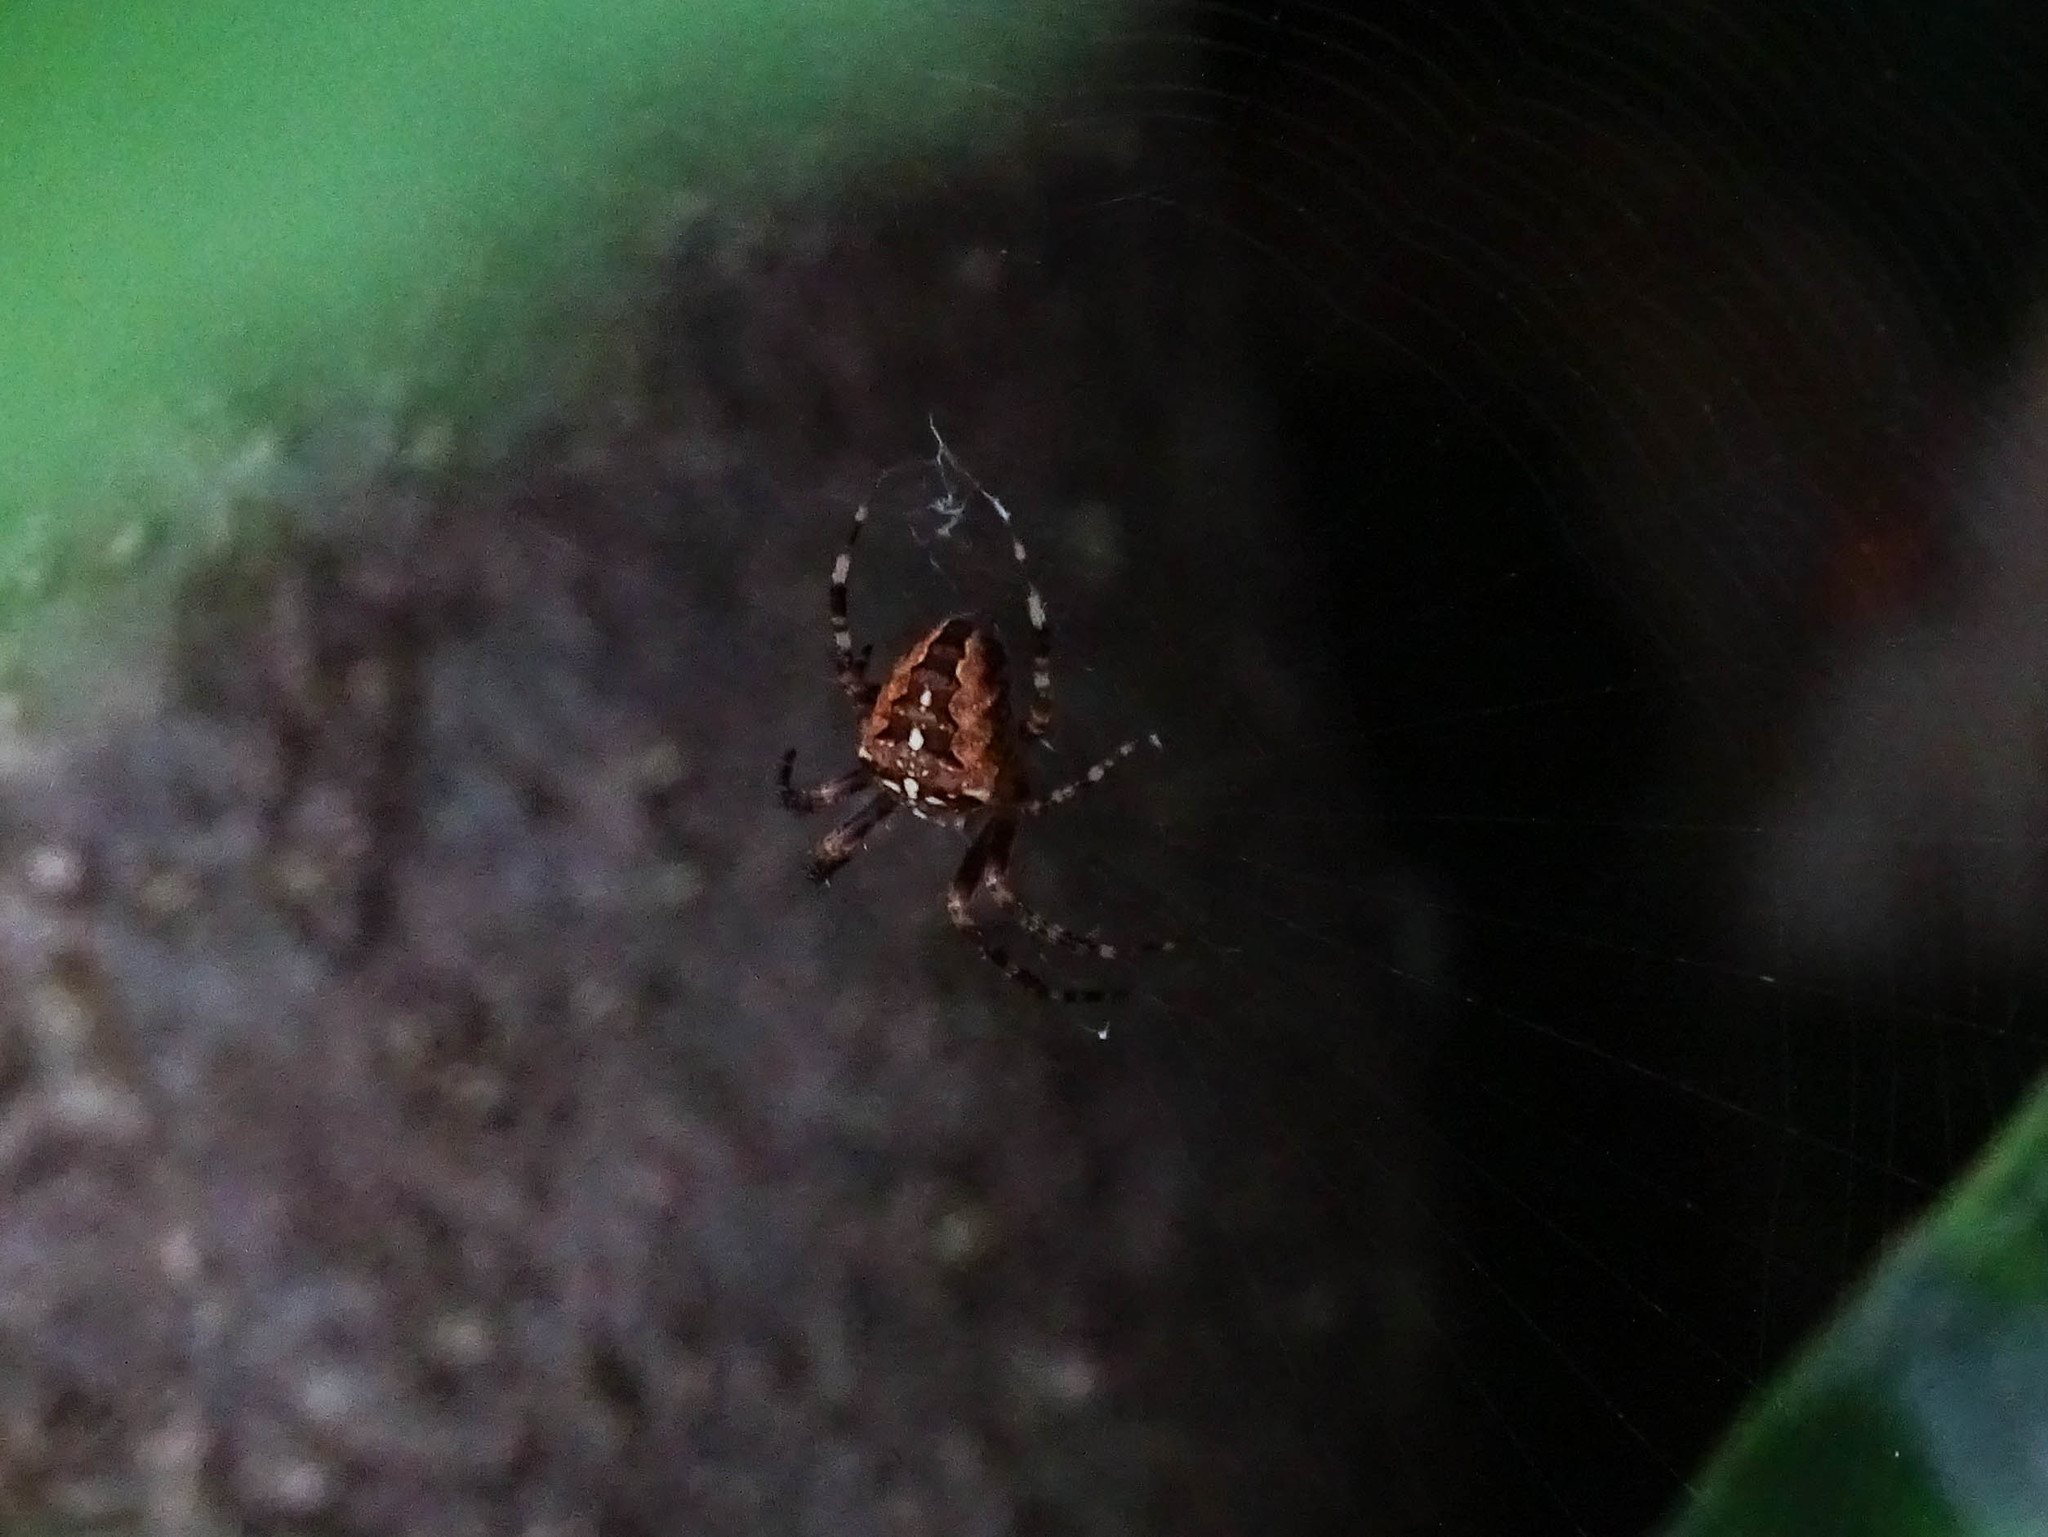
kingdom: Animalia
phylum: Arthropoda
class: Arachnida
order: Araneae
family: Araneidae
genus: Araneus
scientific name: Araneus diadematus
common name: Cross orbweaver
